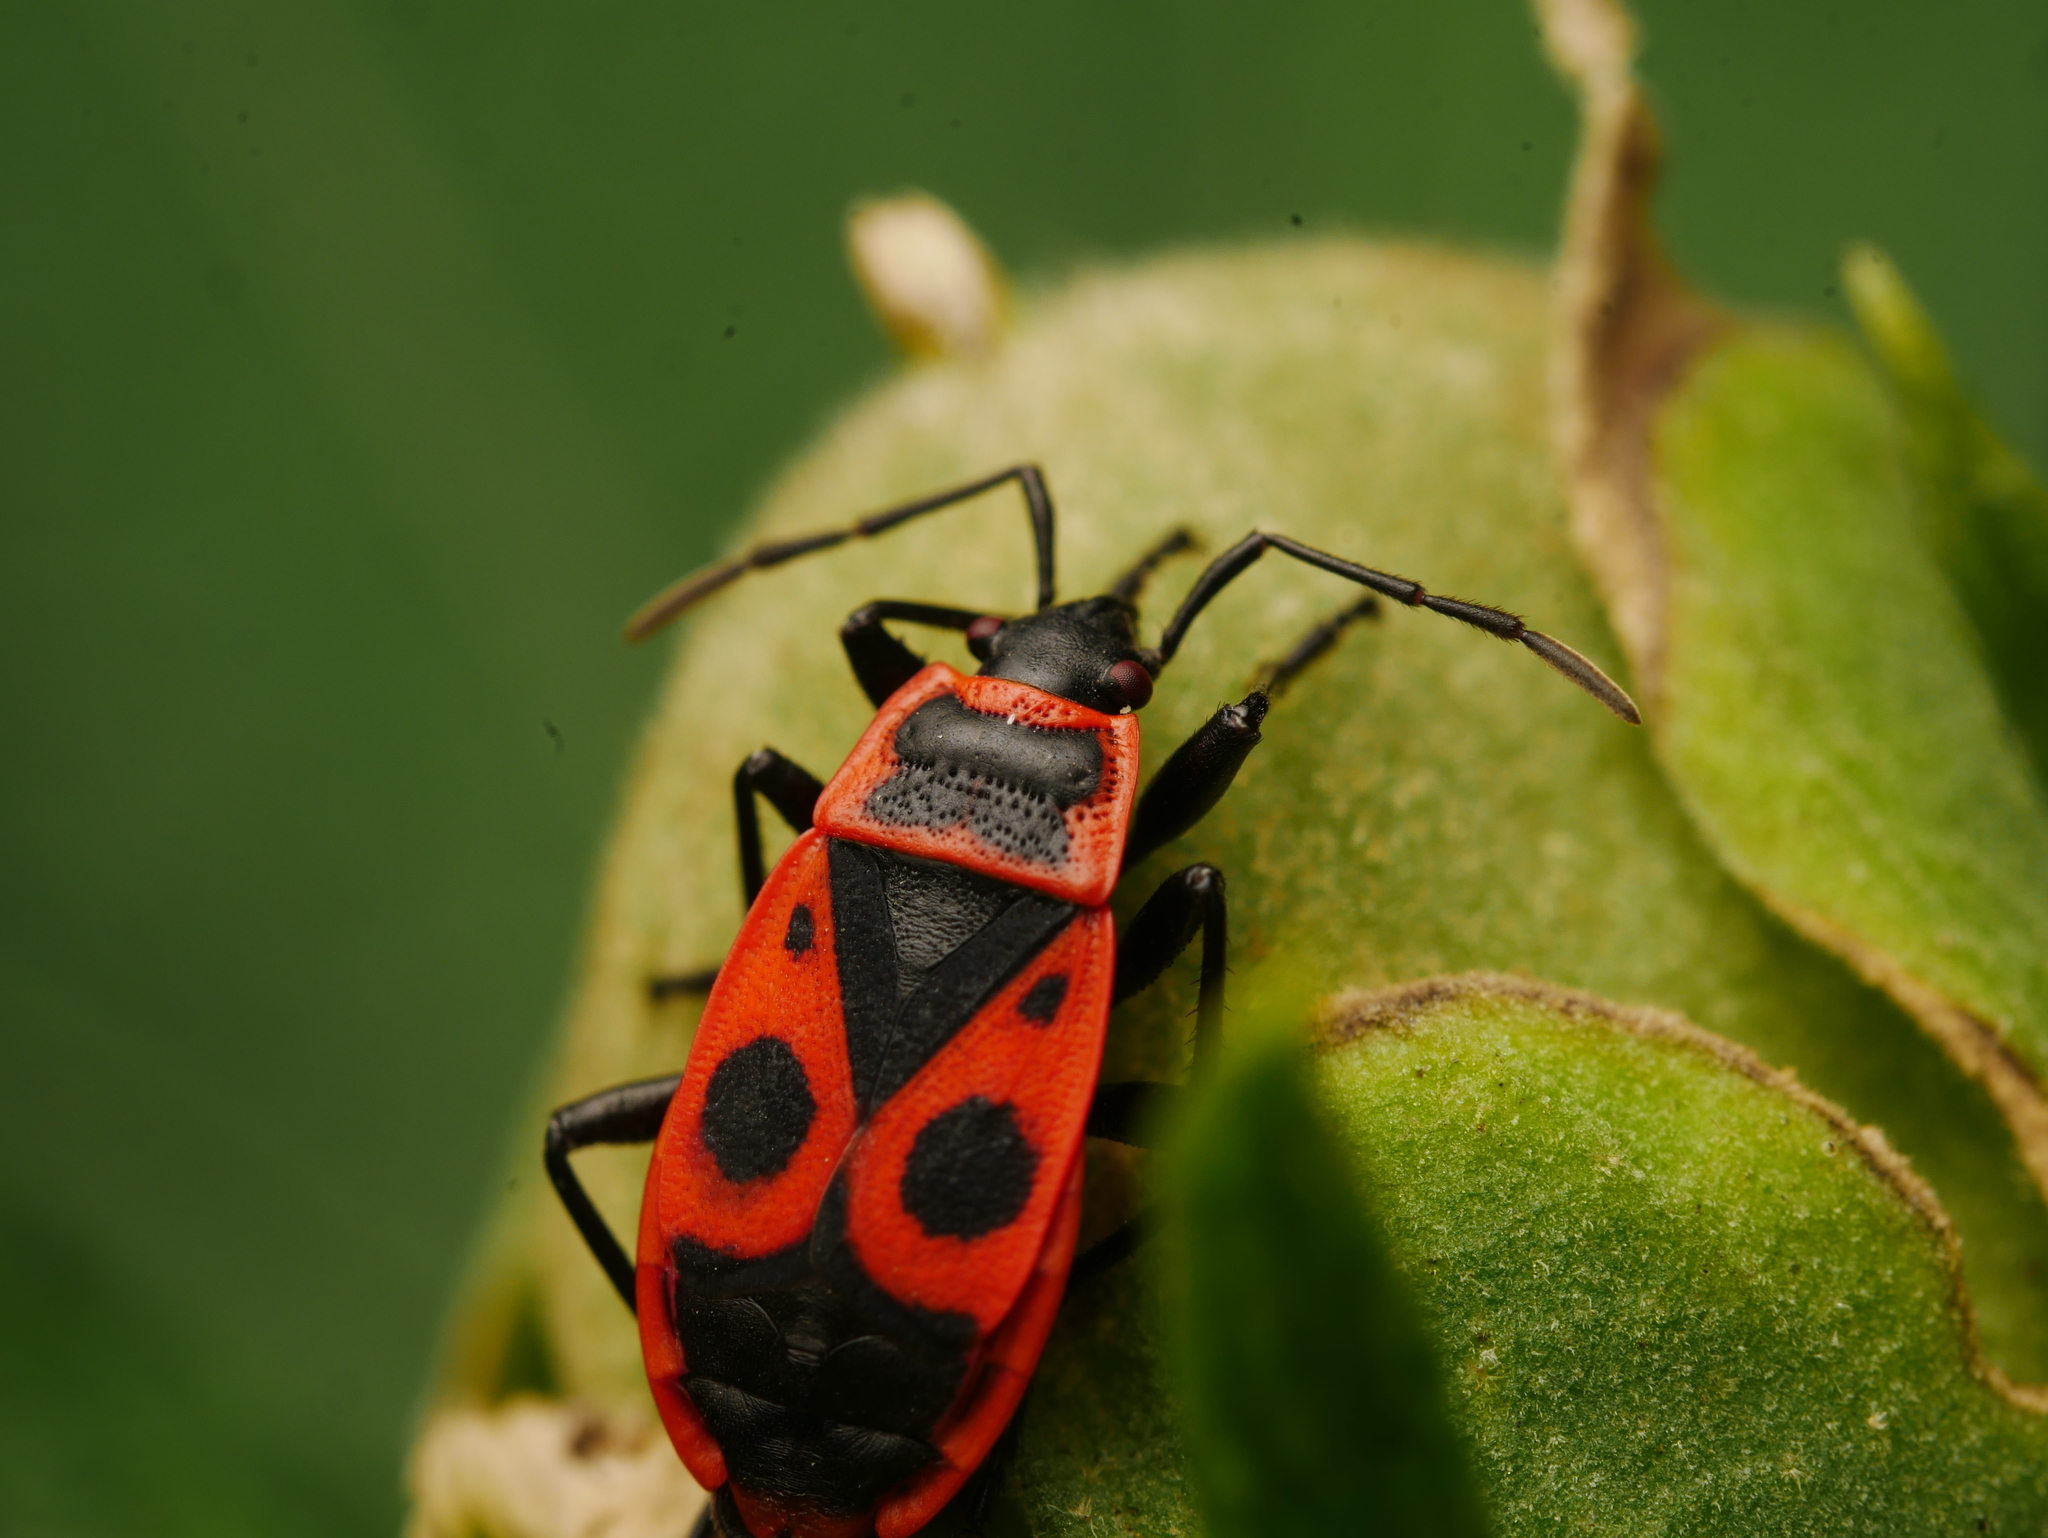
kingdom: Animalia
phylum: Arthropoda
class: Insecta
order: Hemiptera
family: Pyrrhocoridae
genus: Pyrrhocoris
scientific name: Pyrrhocoris apterus
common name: Firebug
